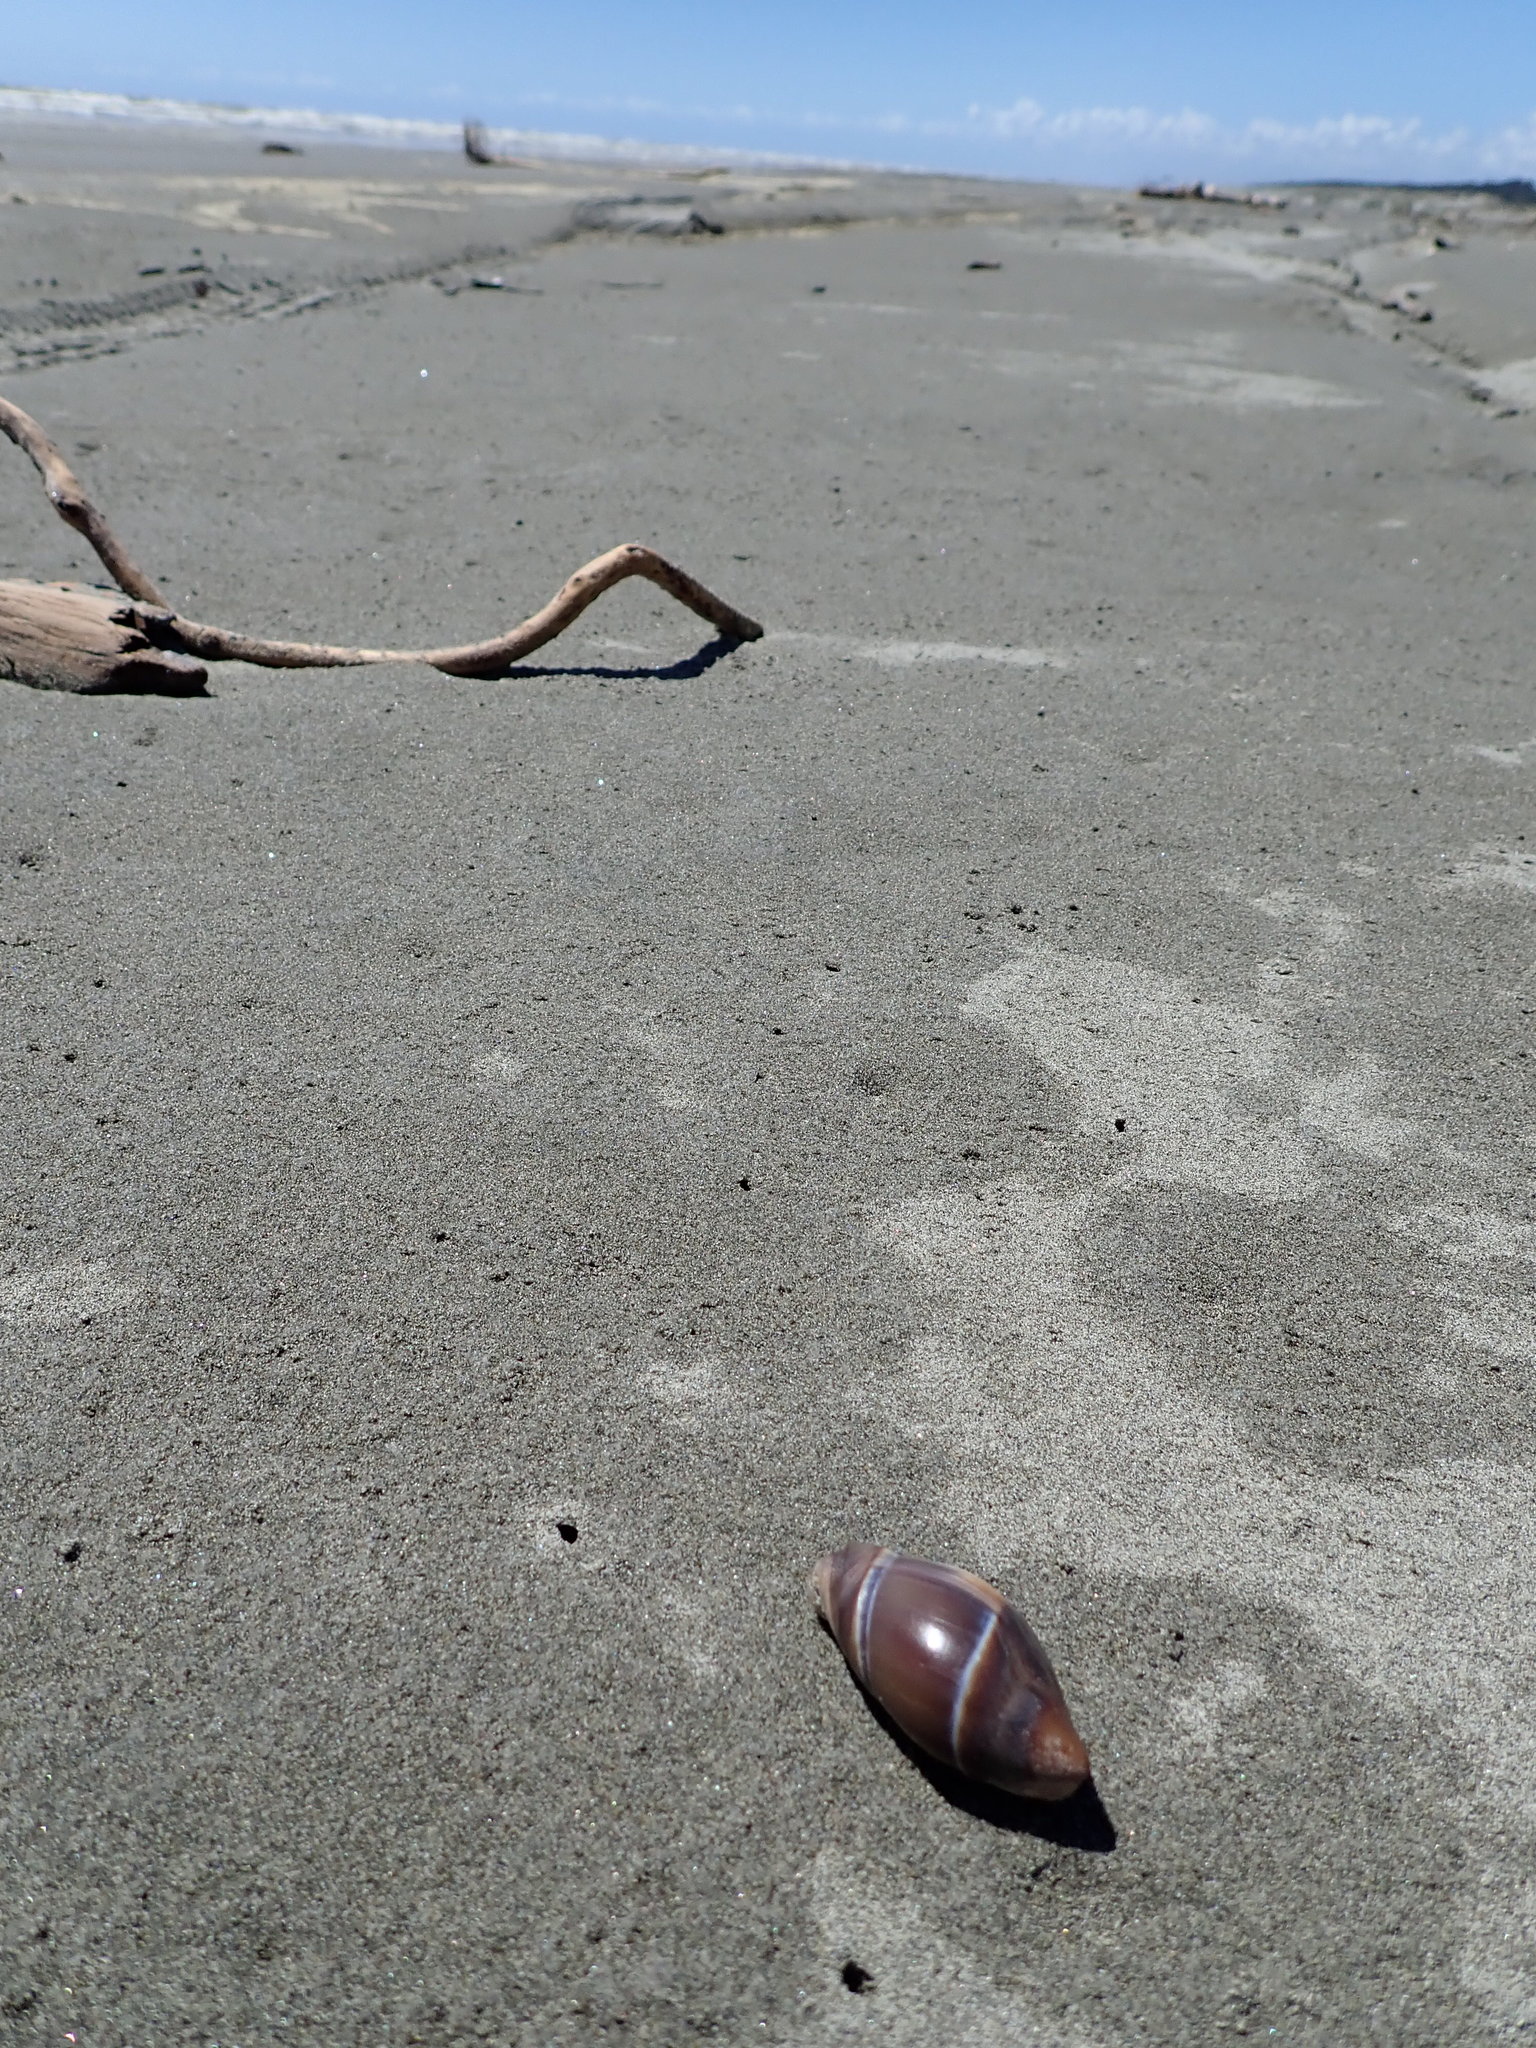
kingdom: Animalia
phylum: Mollusca
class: Gastropoda
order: Neogastropoda
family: Ancillariidae
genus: Amalda
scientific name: Amalda australis
